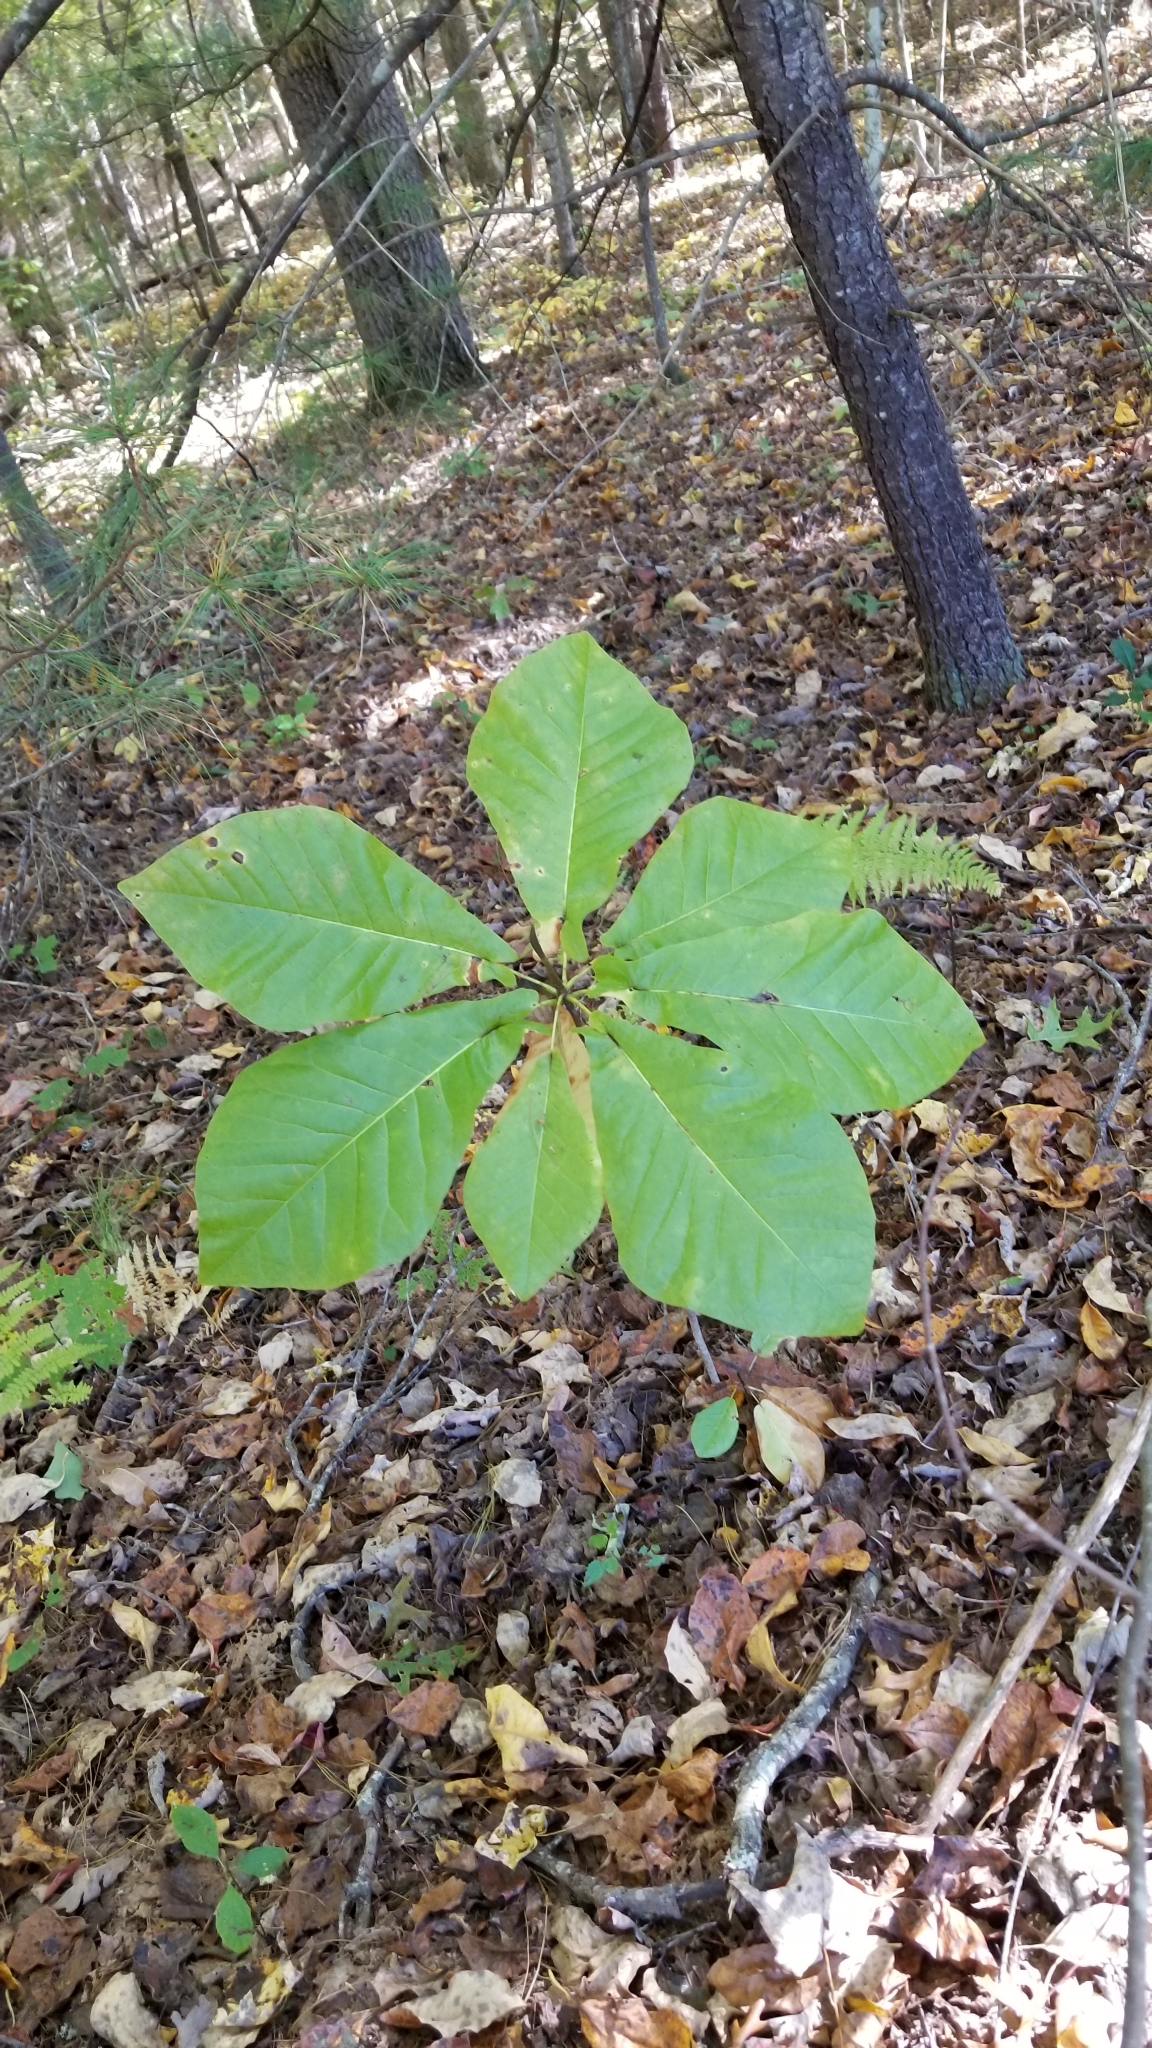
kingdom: Plantae
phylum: Tracheophyta
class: Magnoliopsida
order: Magnoliales
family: Magnoliaceae
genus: Magnolia
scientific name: Magnolia fraseri
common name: Fraser's magnolia
